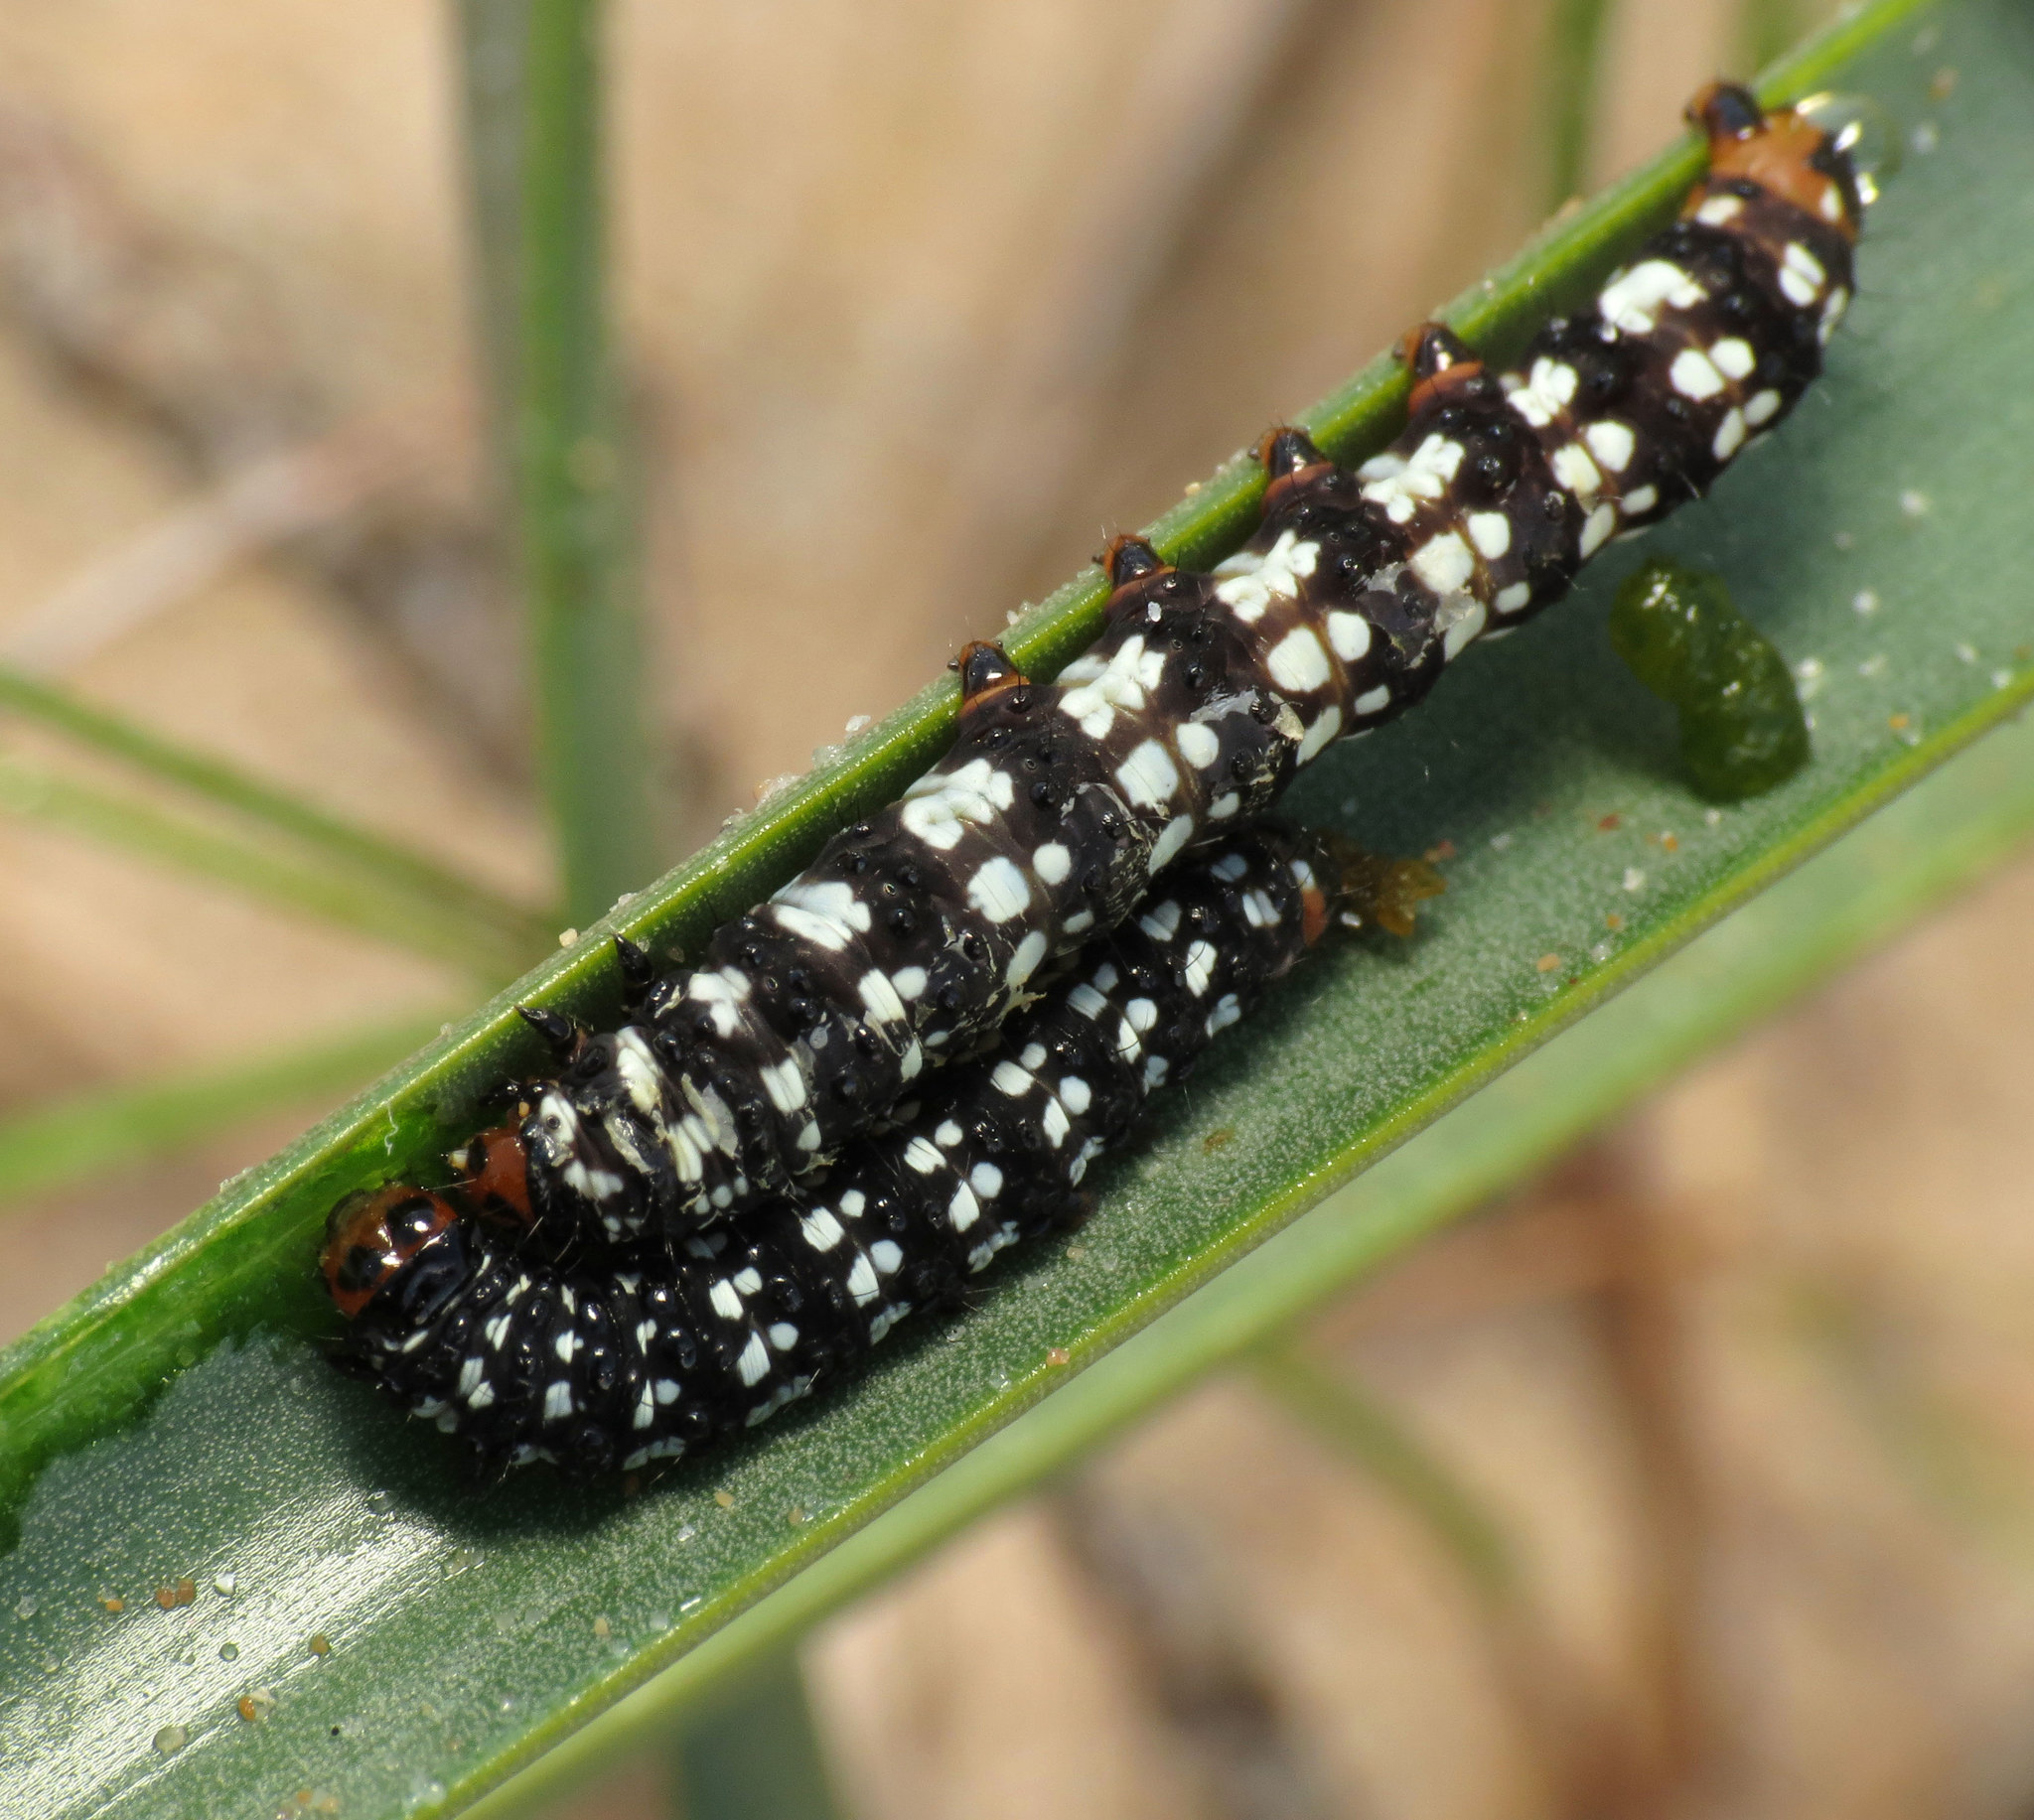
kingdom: Animalia
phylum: Arthropoda
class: Insecta
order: Lepidoptera
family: Noctuidae
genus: Brithys
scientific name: Brithys crini
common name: Kew arches
